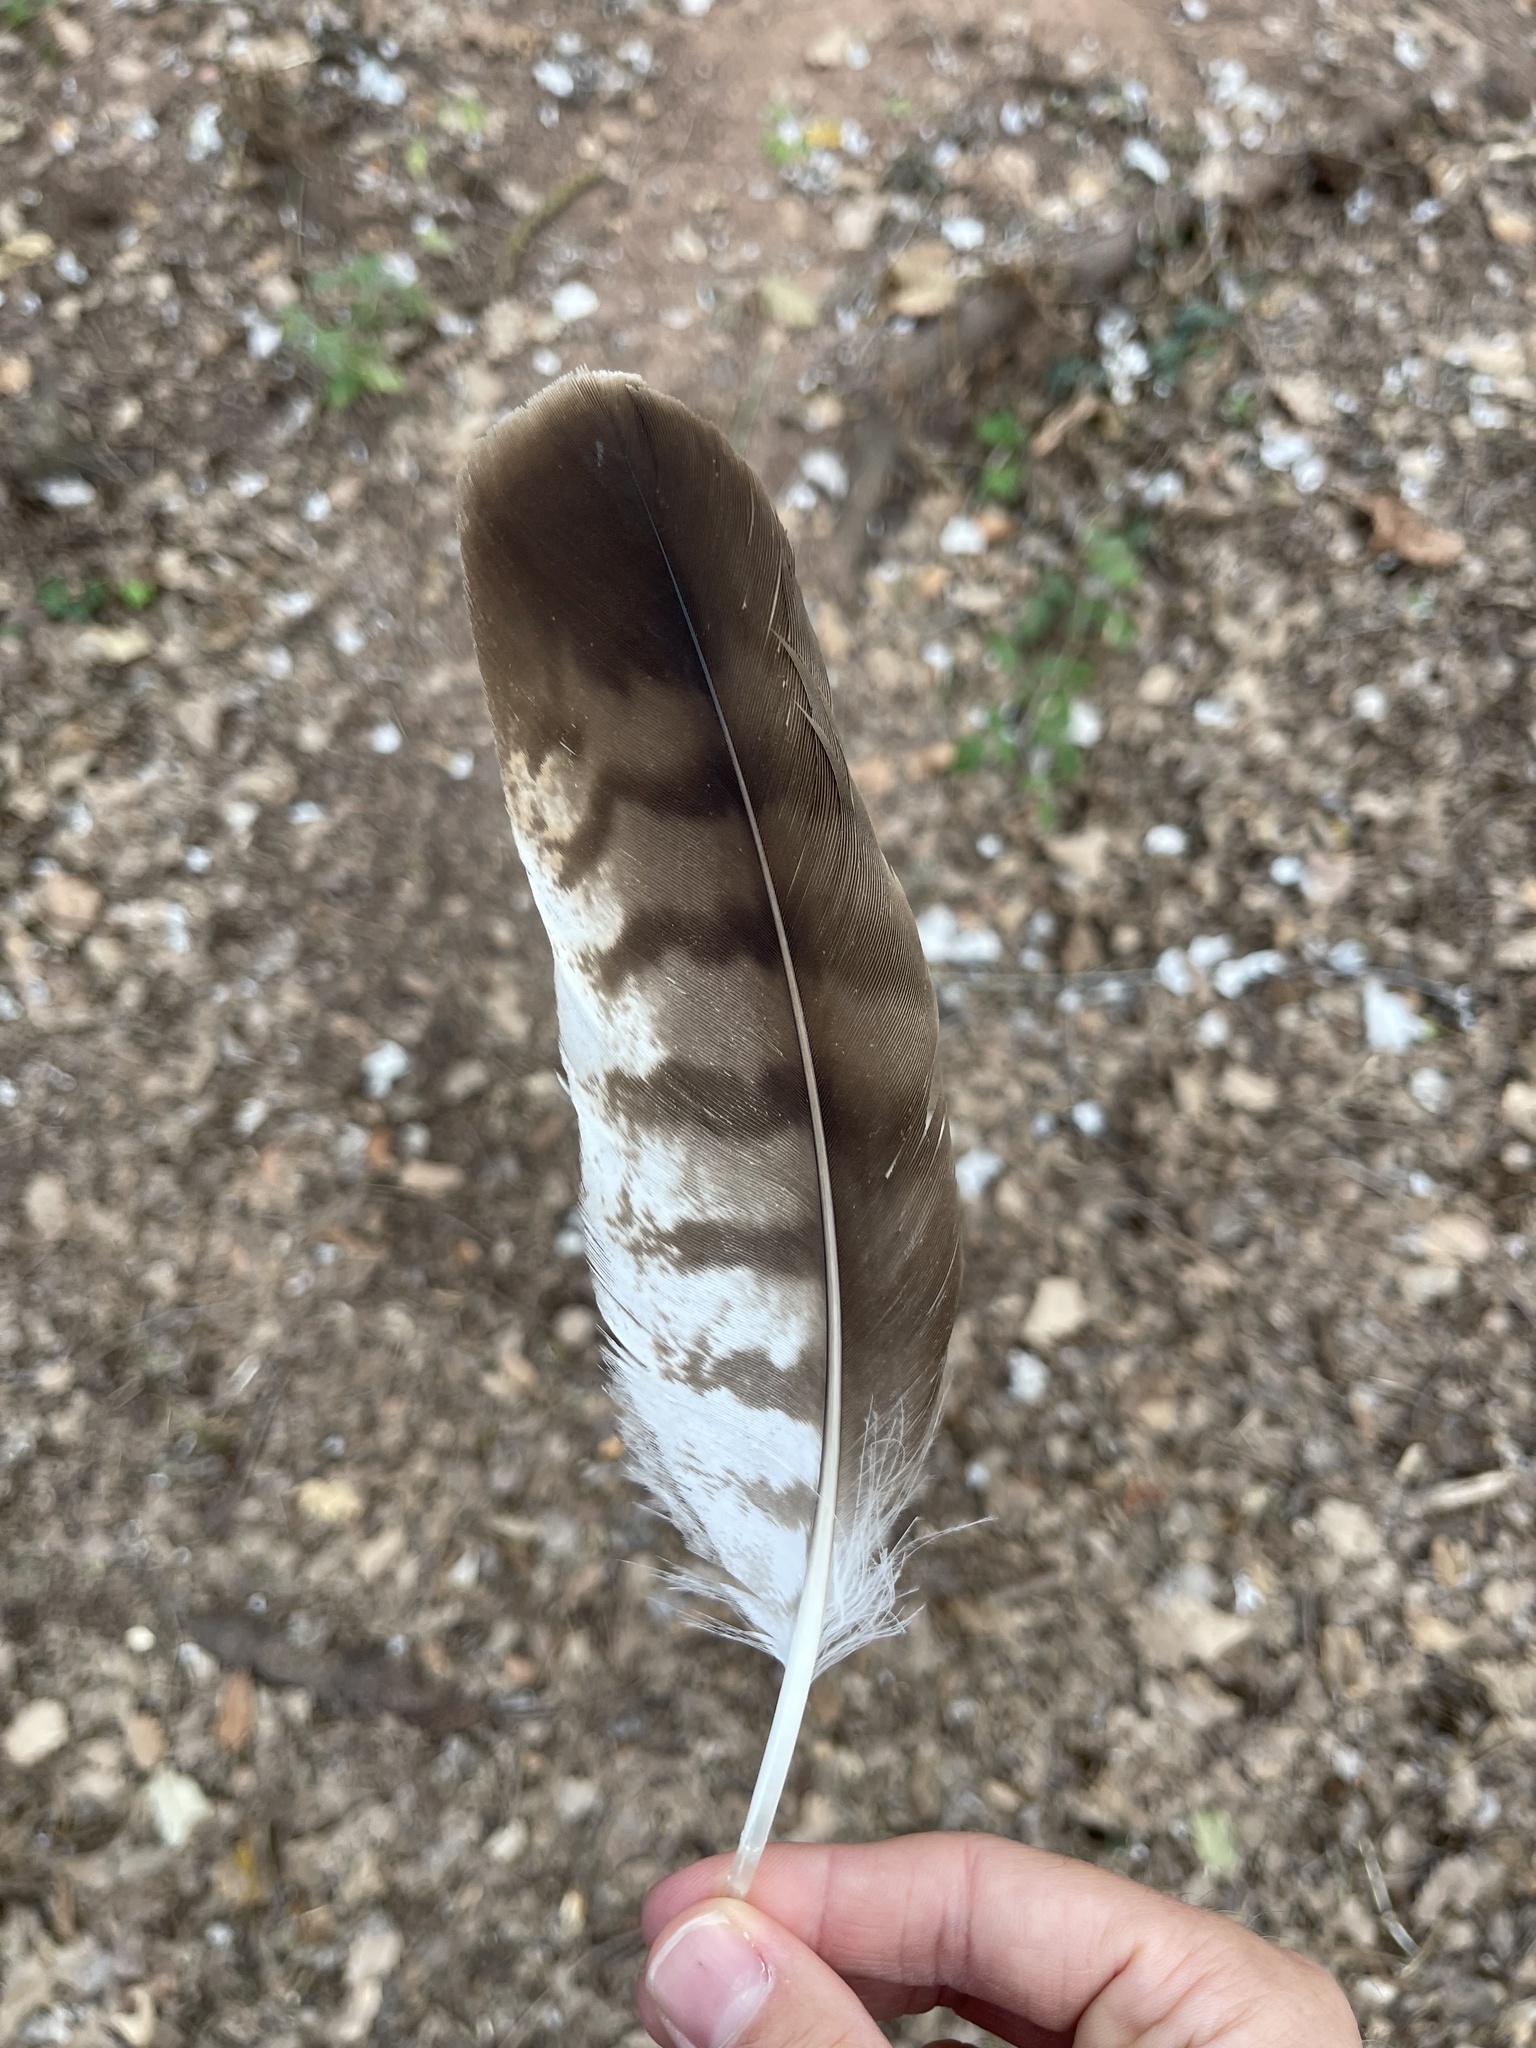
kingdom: Animalia
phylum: Chordata
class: Aves
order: Accipitriformes
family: Accipitridae
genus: Buteo
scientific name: Buteo buteo
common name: Common buzzard
